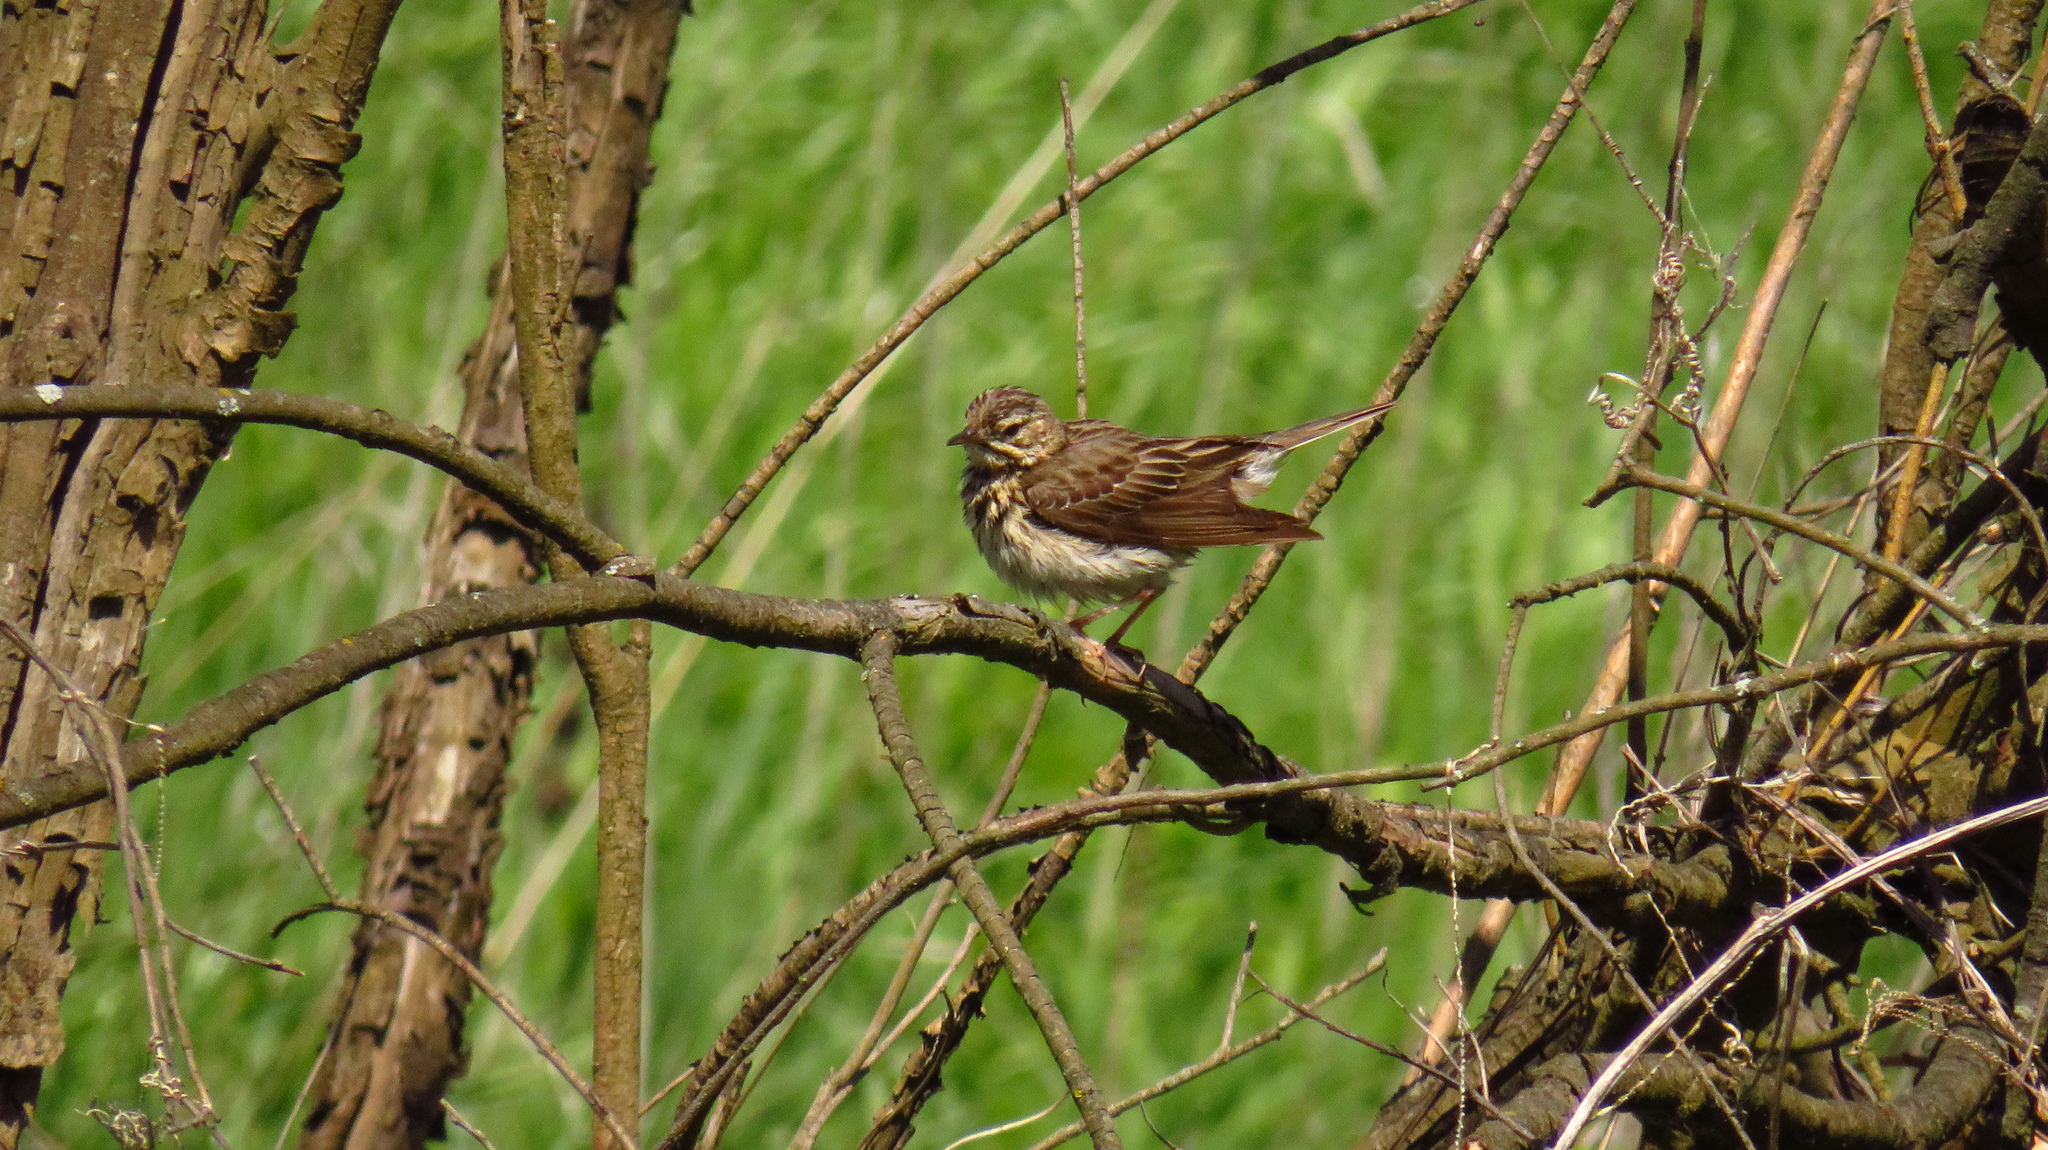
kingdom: Animalia
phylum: Chordata
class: Aves
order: Passeriformes
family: Motacillidae
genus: Anthus
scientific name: Anthus trivialis
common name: Tree pipit
